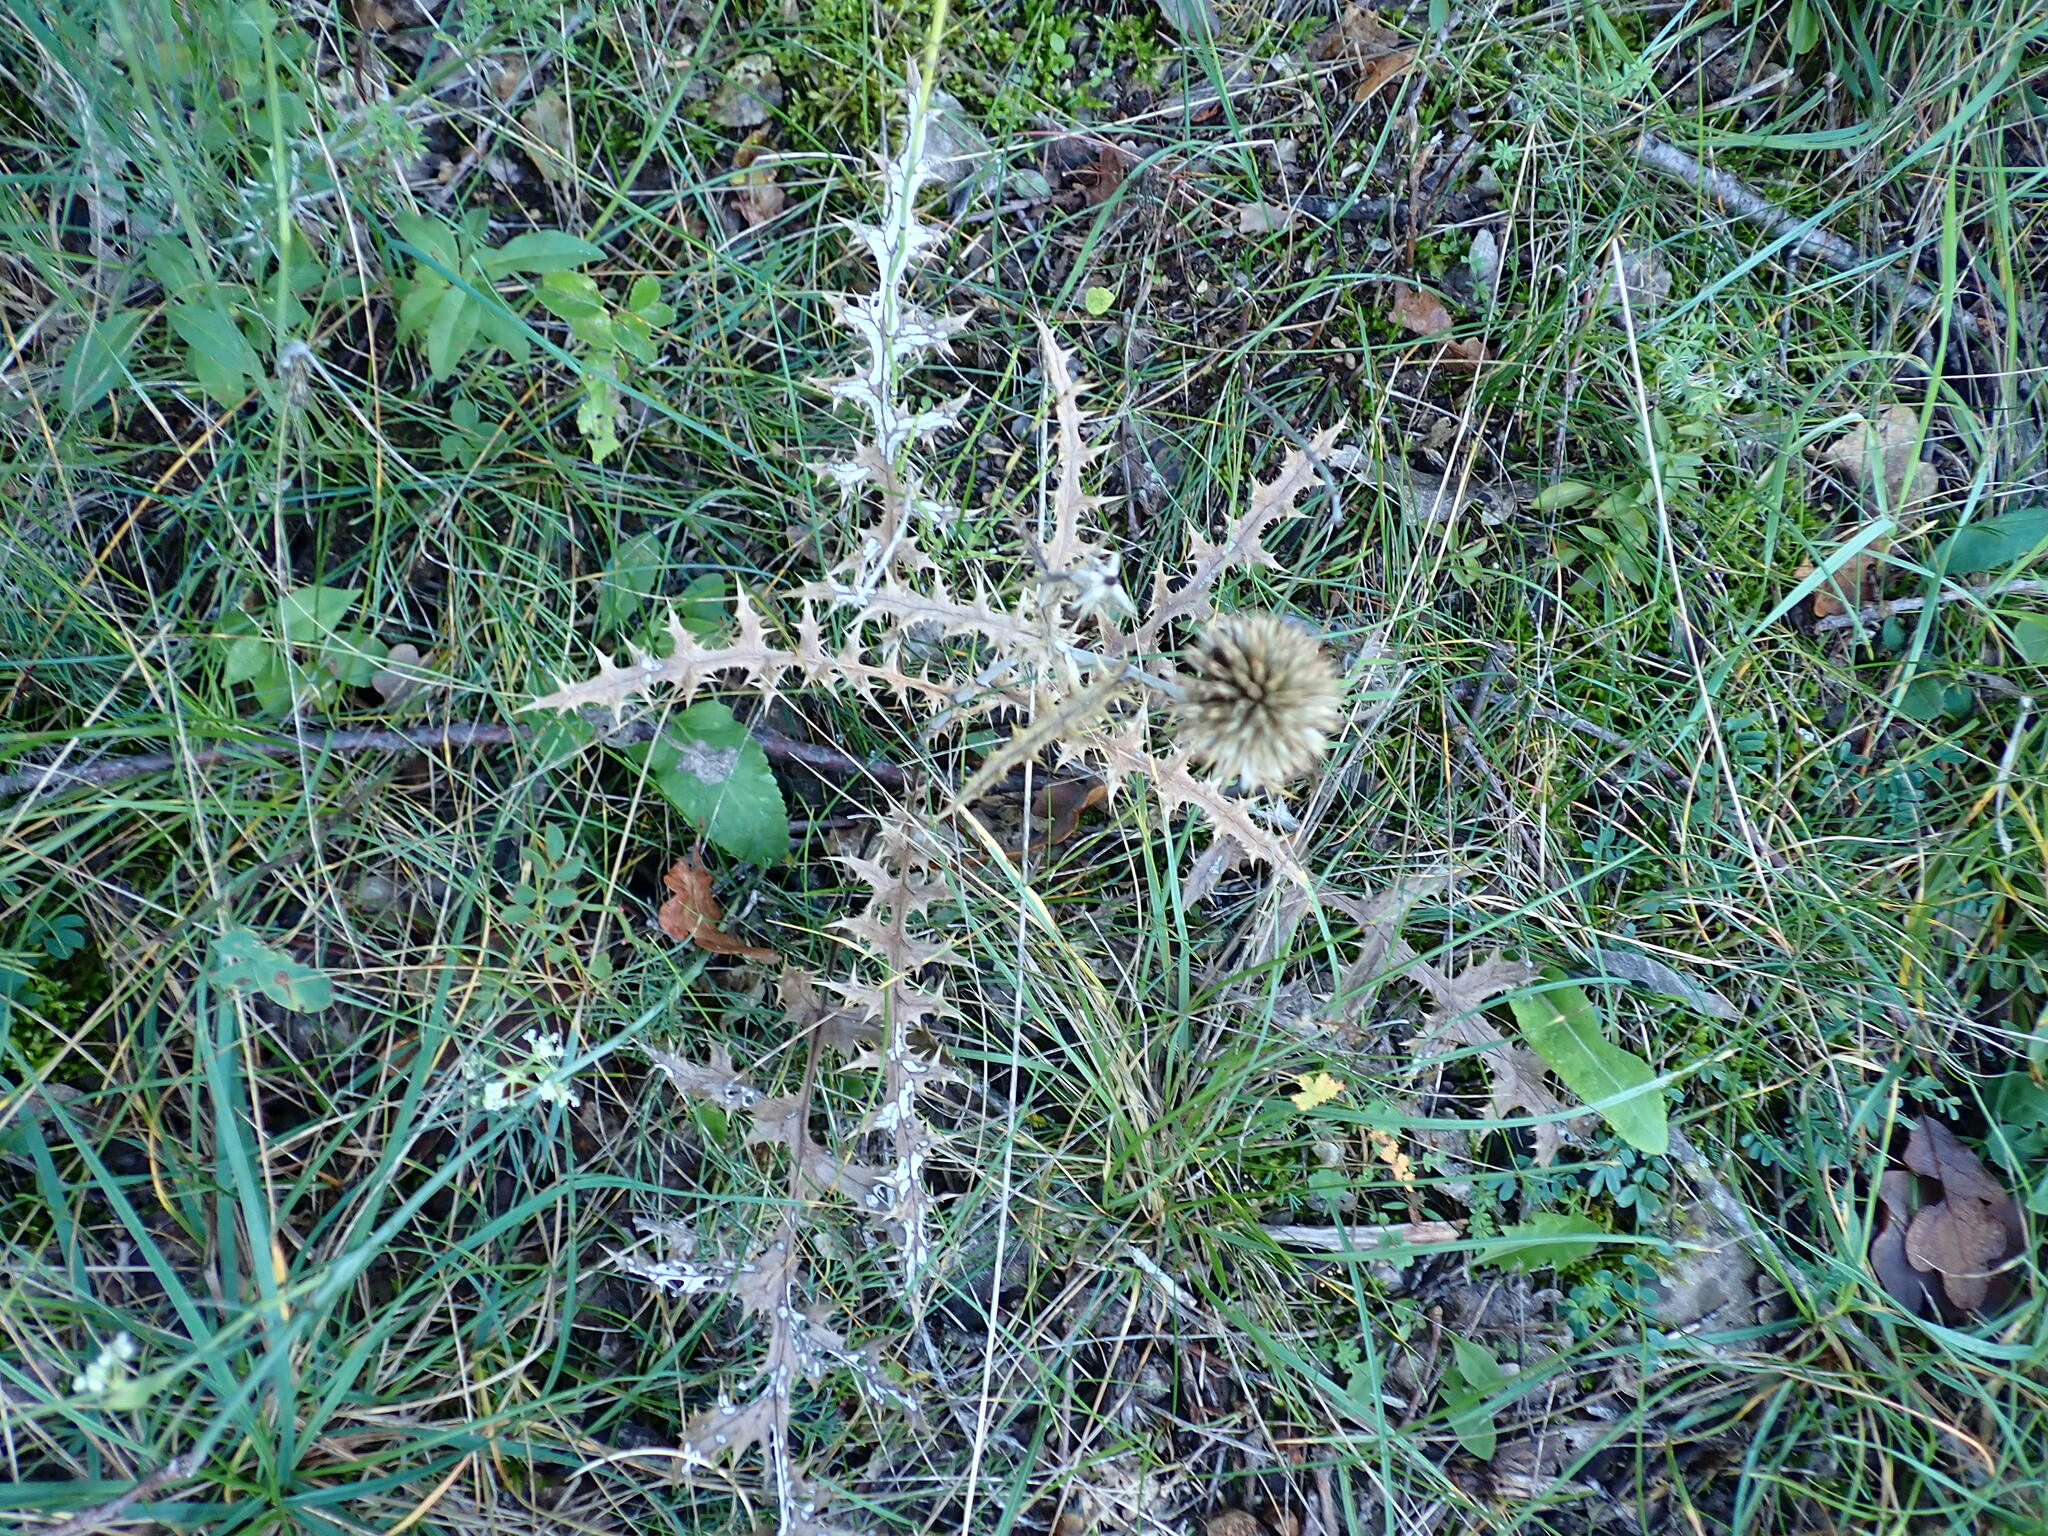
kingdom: Plantae
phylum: Tracheophyta
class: Magnoliopsida
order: Asterales
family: Asteraceae
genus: Echinops
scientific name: Echinops ritro
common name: Globe thistle
